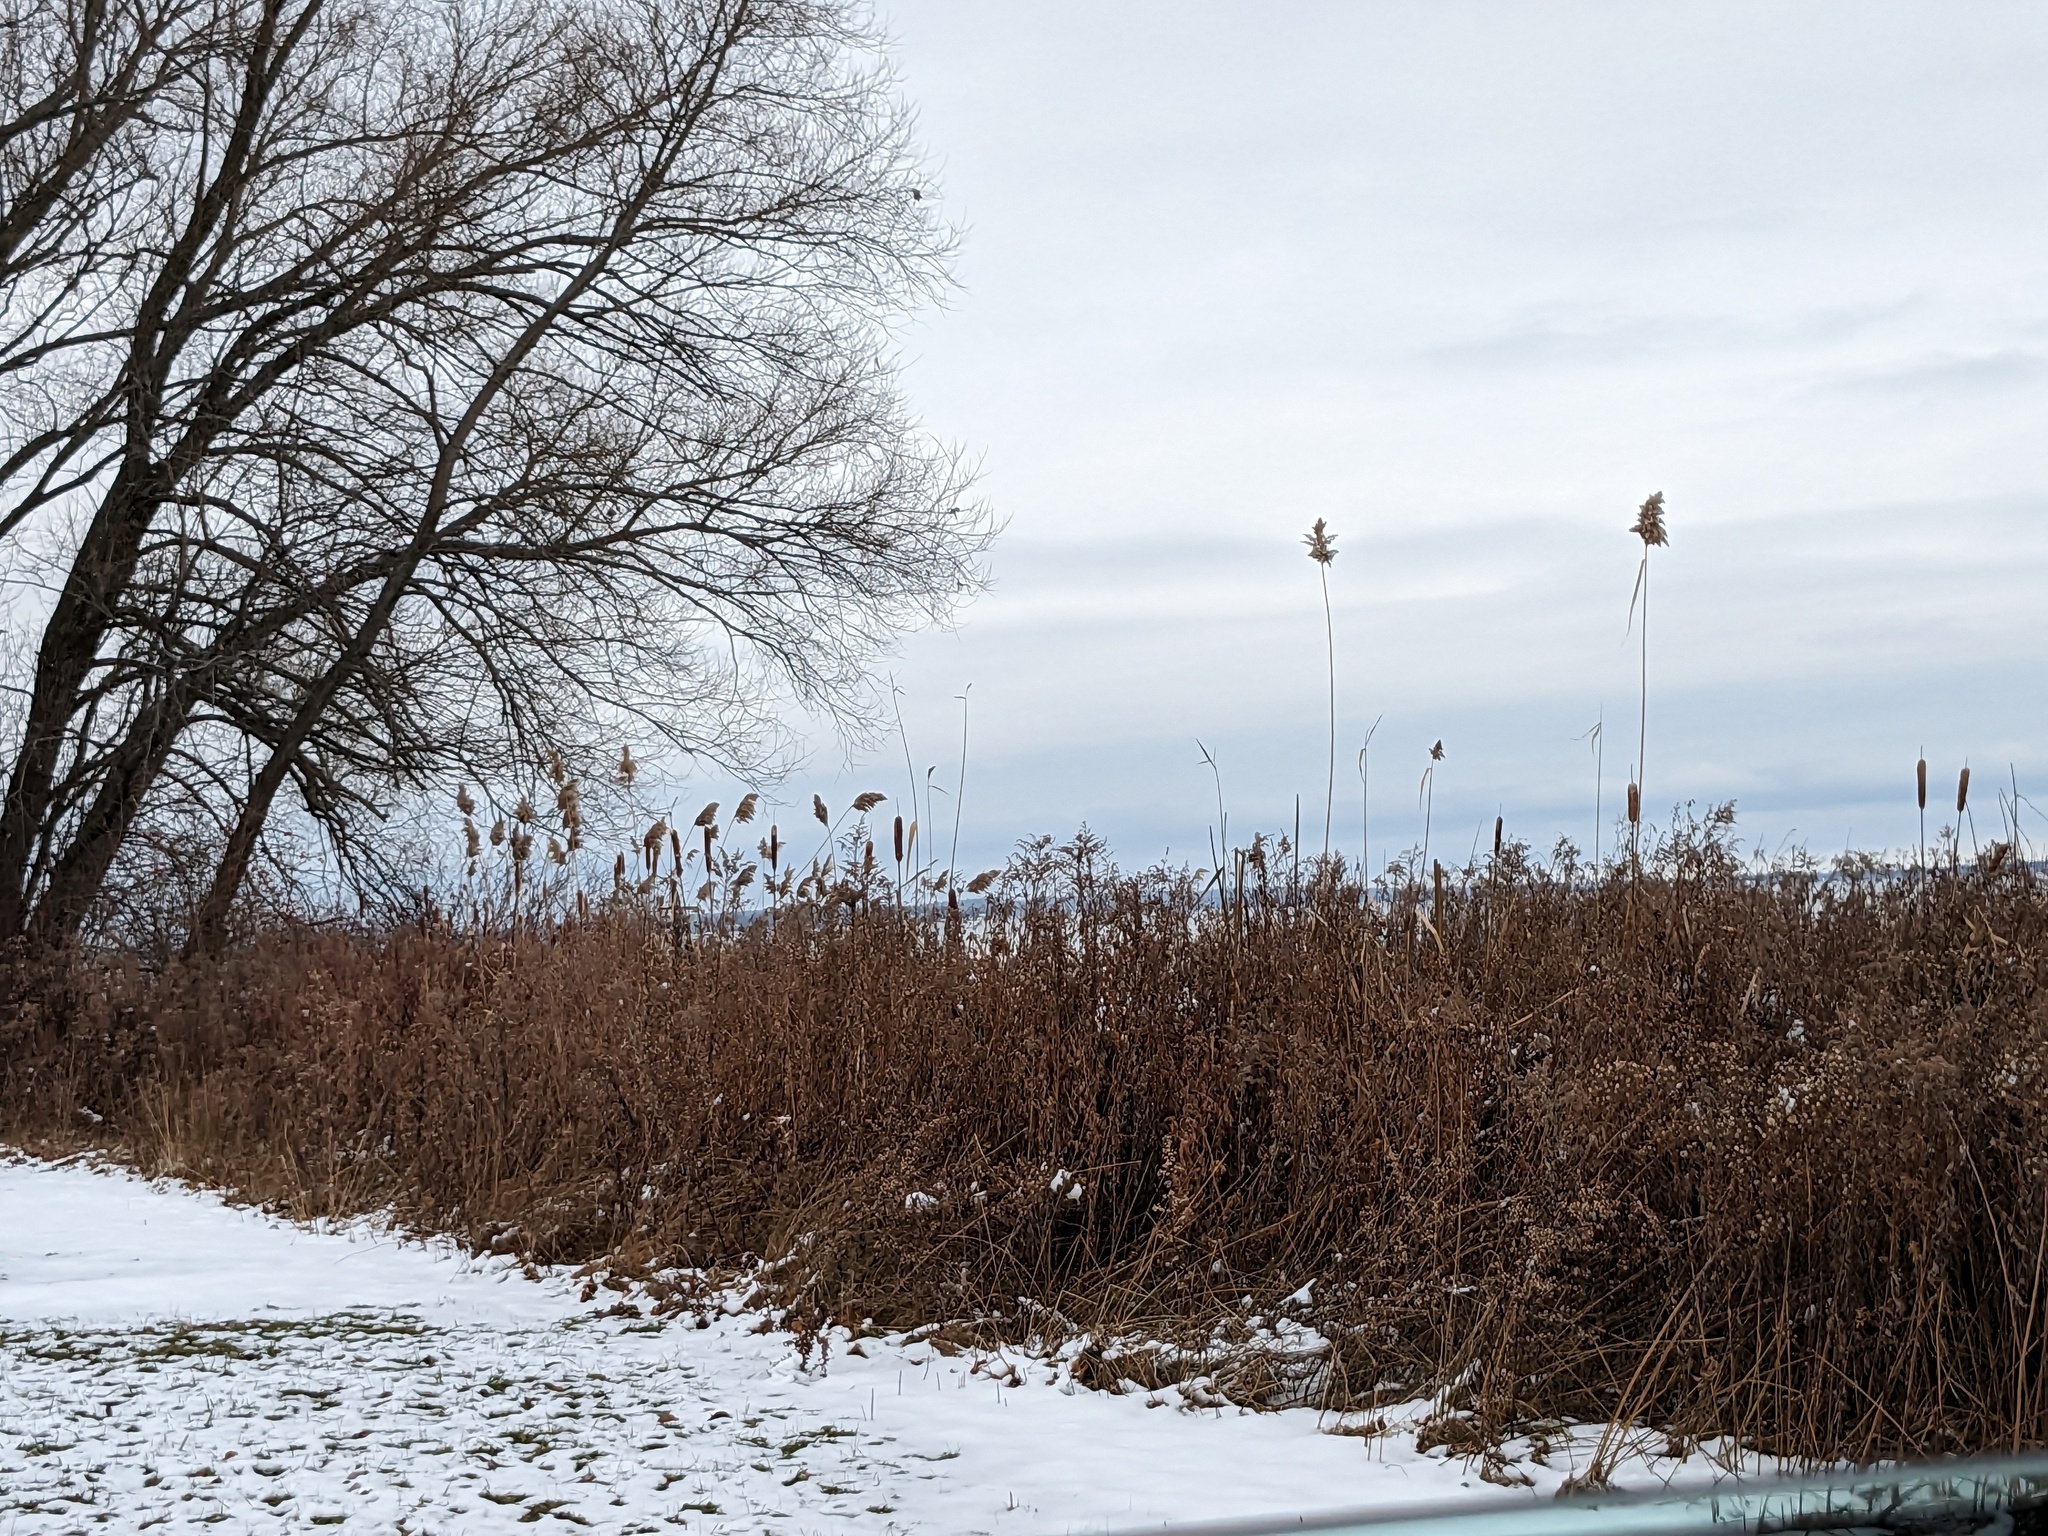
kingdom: Plantae
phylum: Tracheophyta
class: Liliopsida
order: Poales
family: Poaceae
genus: Phragmites
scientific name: Phragmites australis
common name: Common reed
